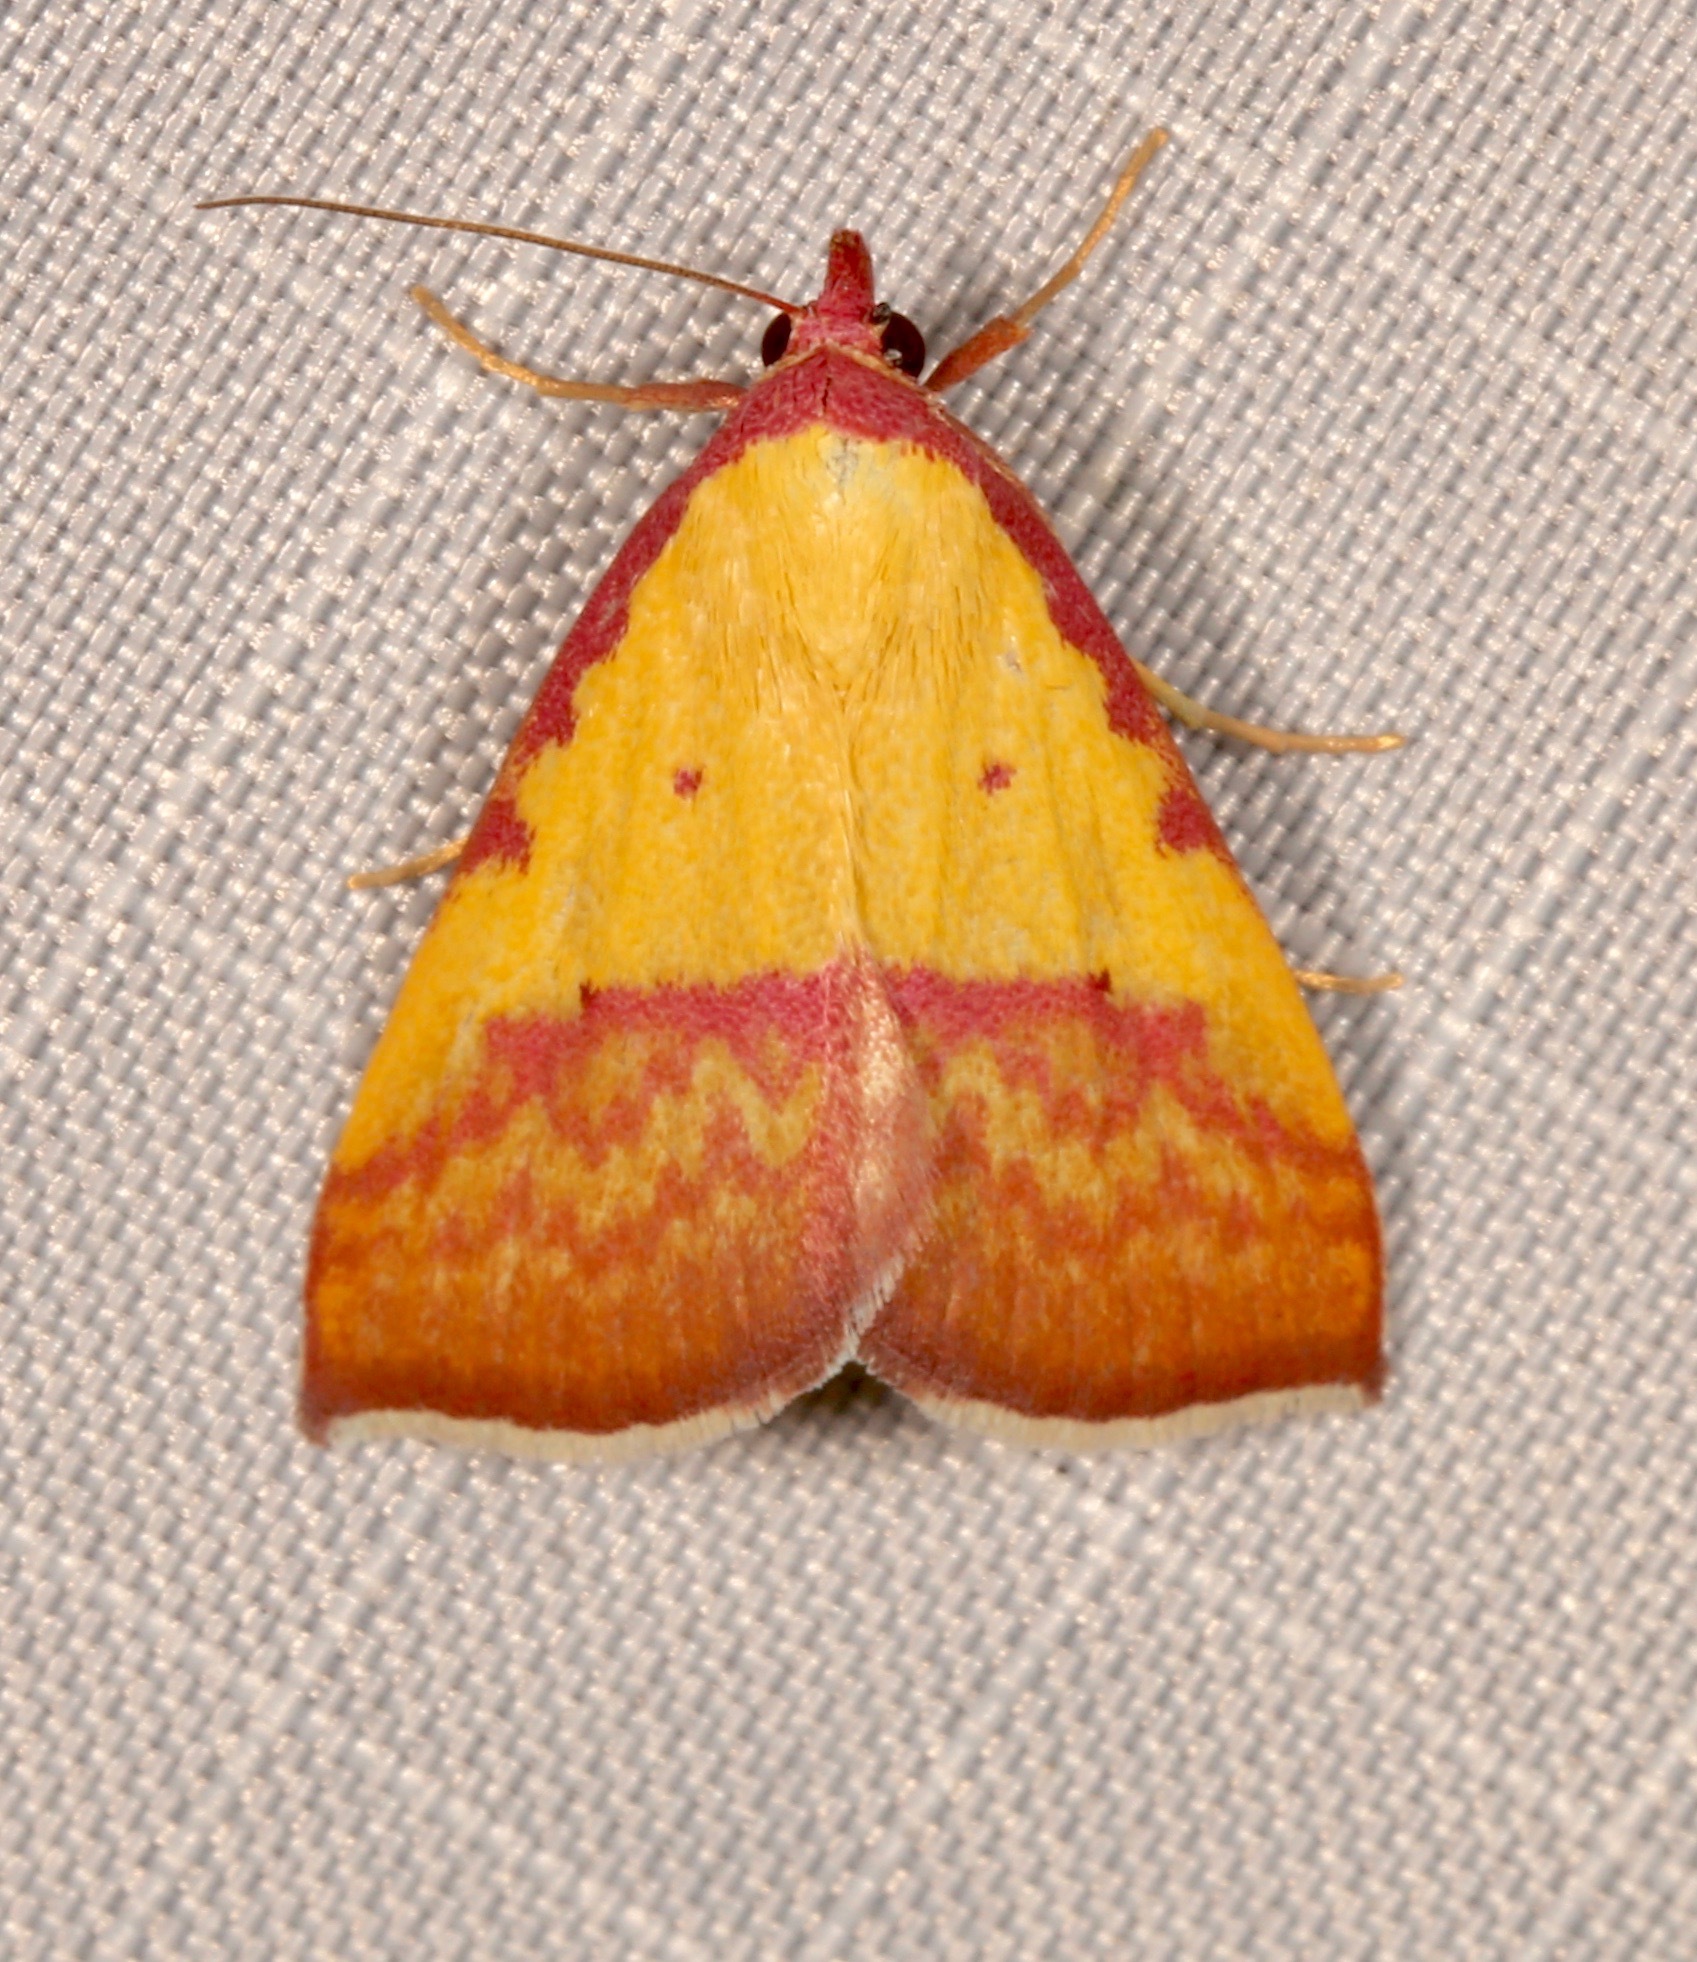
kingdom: Animalia
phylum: Arthropoda
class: Insecta
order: Lepidoptera
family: Erebidae
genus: Phytometra
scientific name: Phytometra rhodarialis
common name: Pink-bordered yellow
